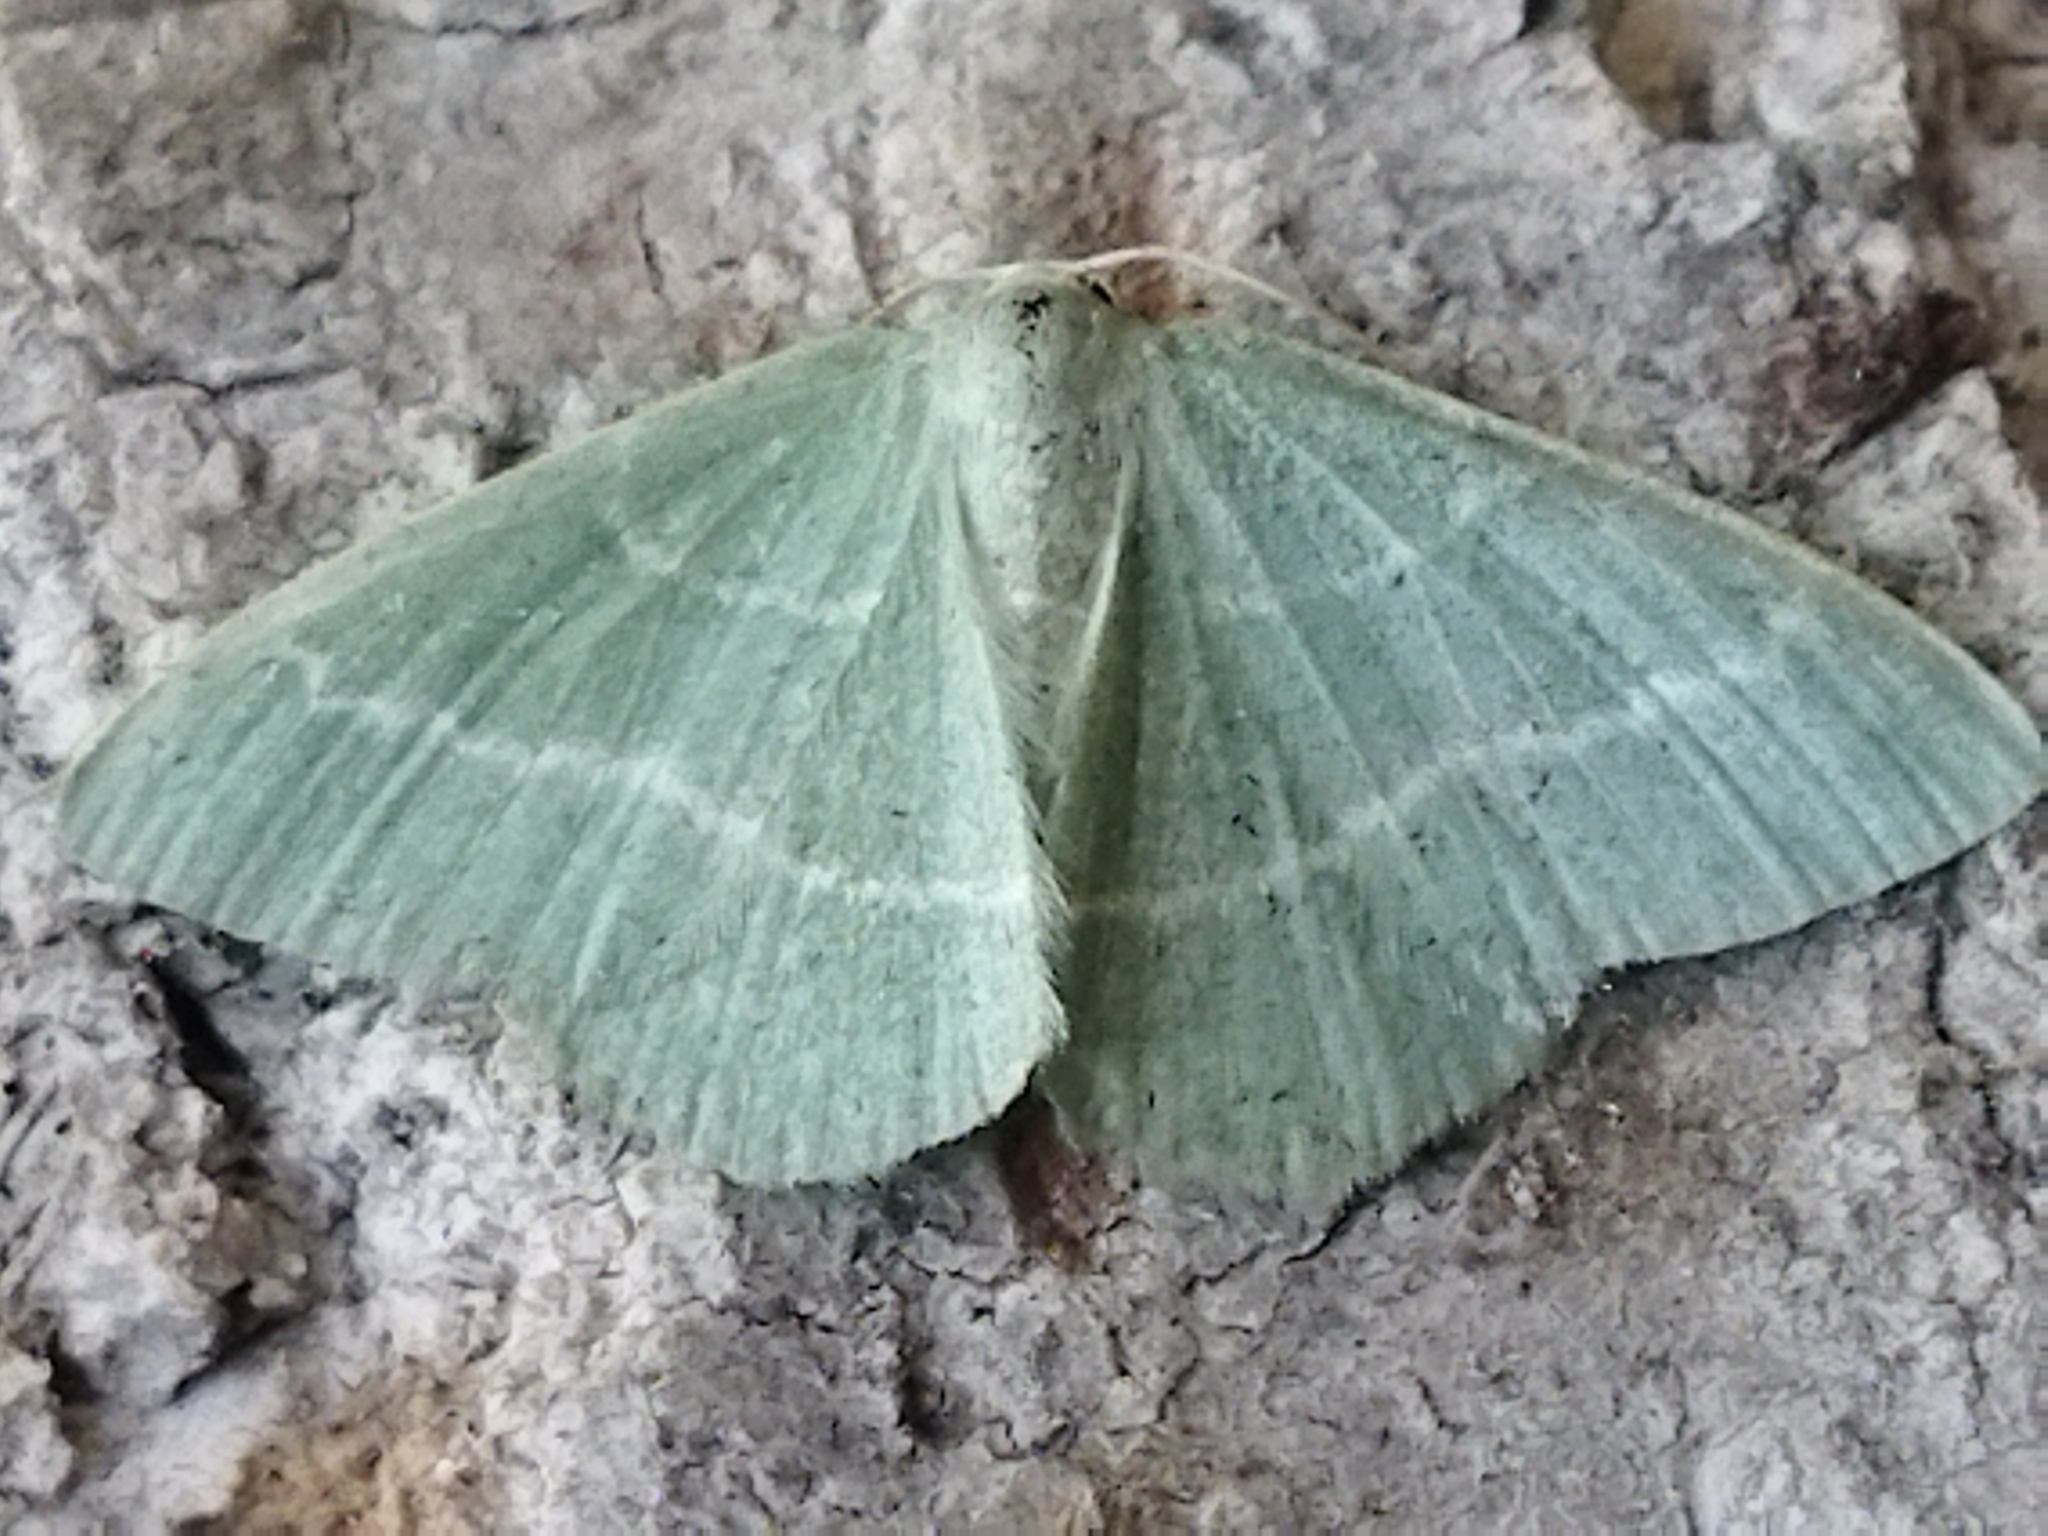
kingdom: Animalia
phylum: Arthropoda
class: Insecta
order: Lepidoptera
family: Geometridae
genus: Chlorissa
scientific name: Chlorissa
